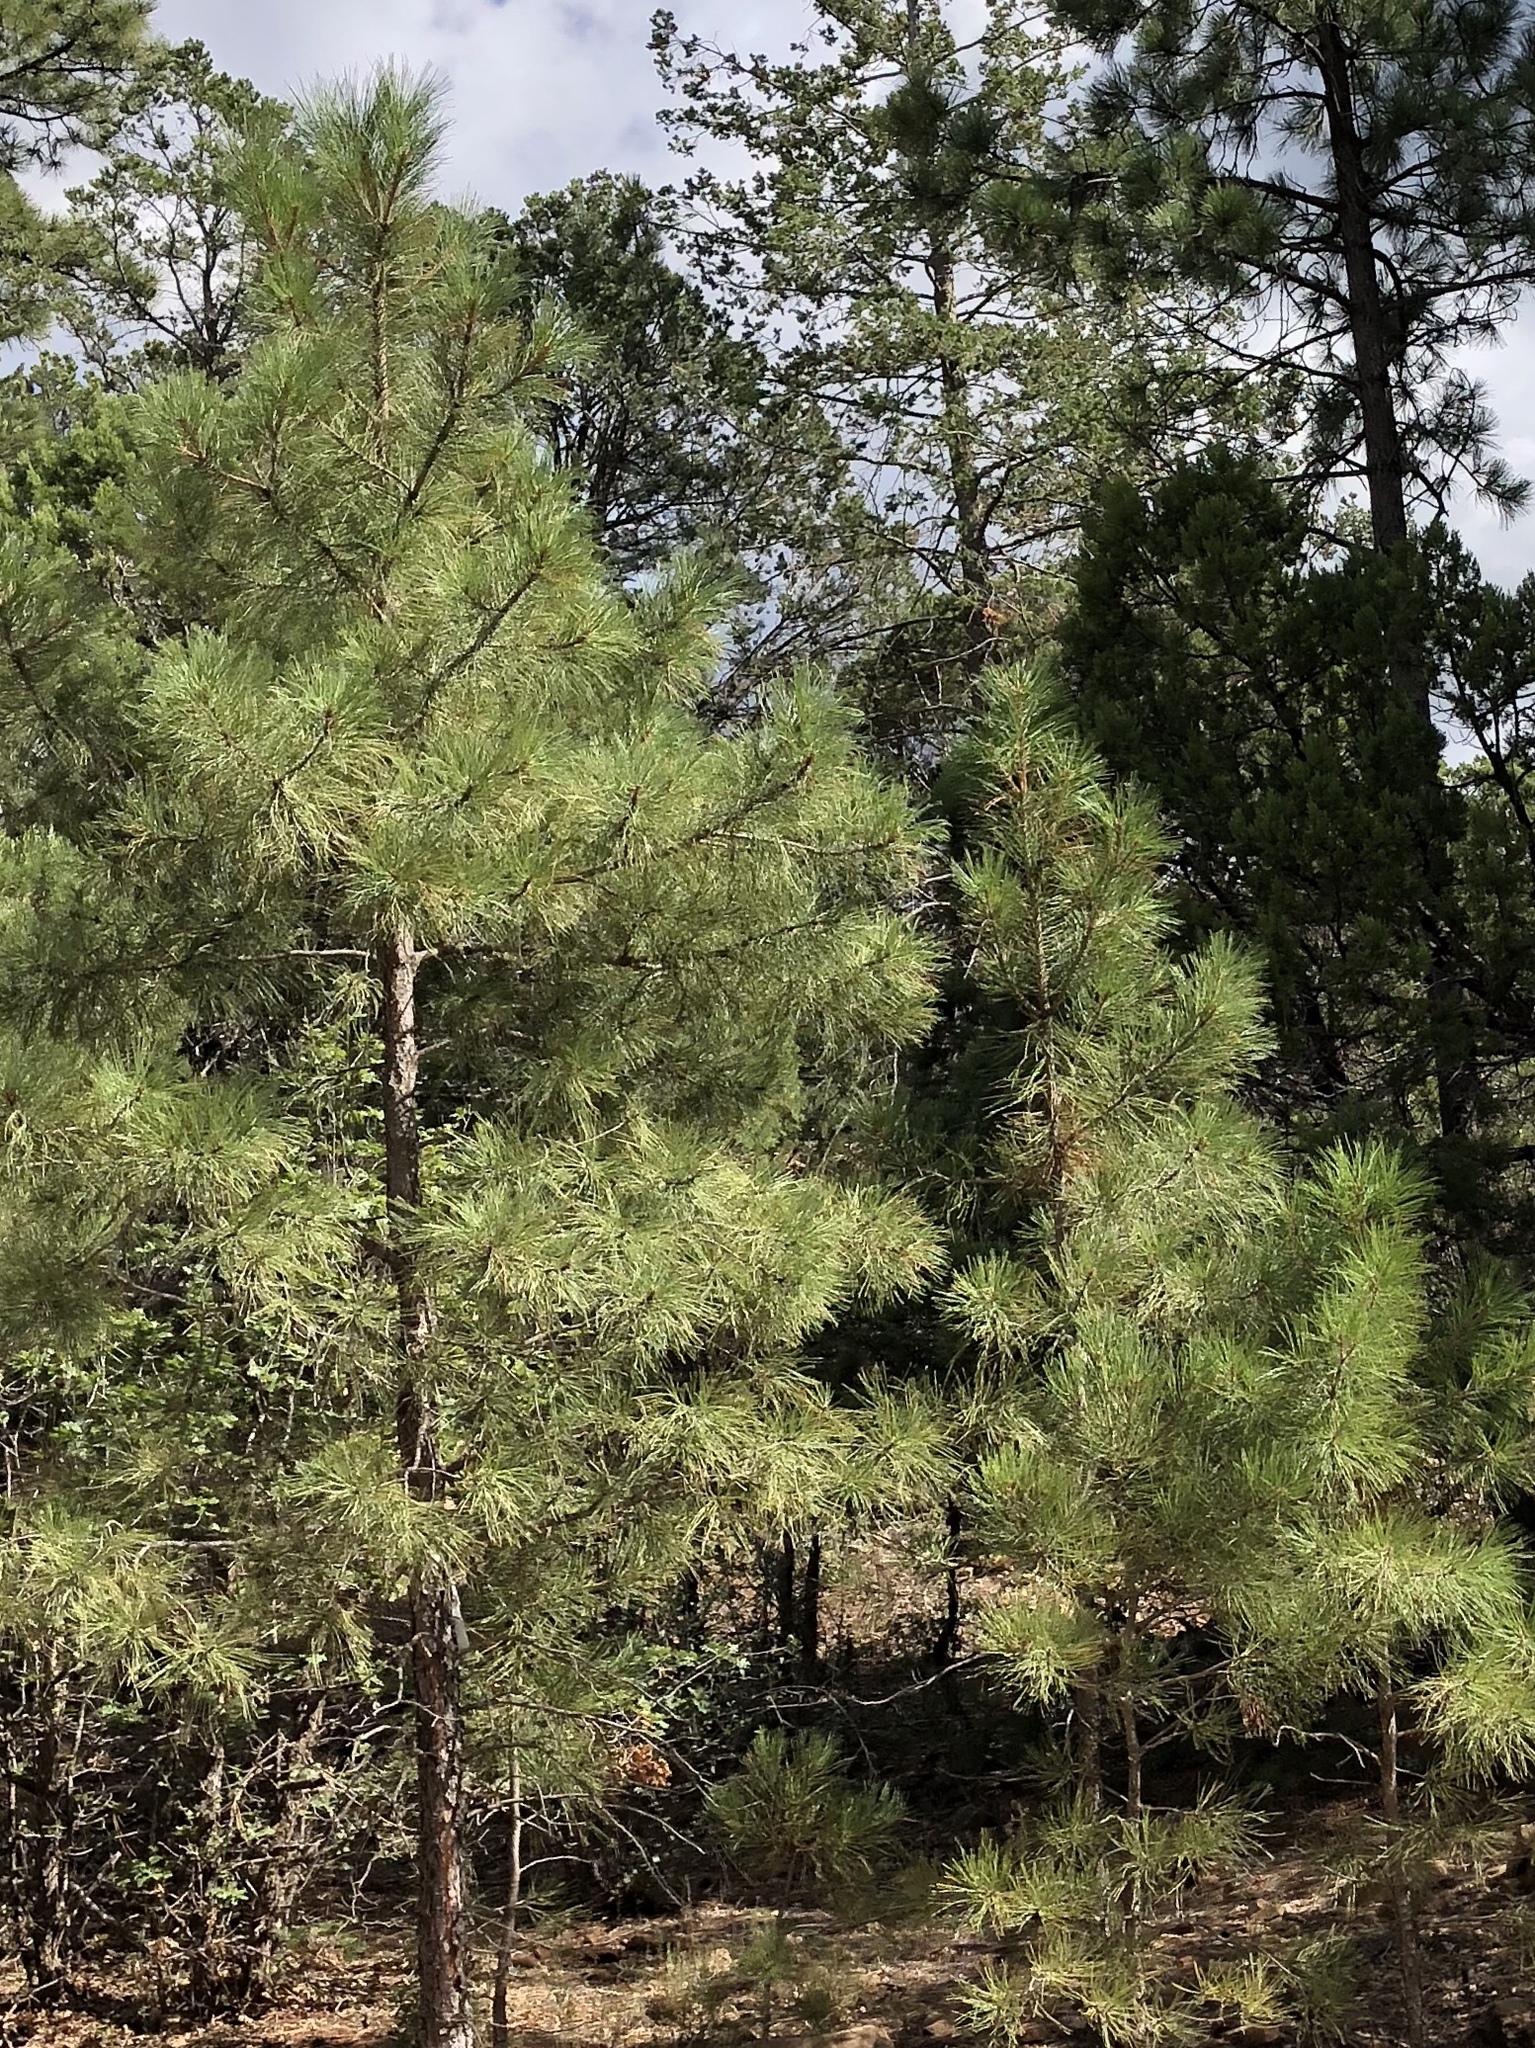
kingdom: Plantae
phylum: Tracheophyta
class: Pinopsida
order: Pinales
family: Pinaceae
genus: Pinus
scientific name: Pinus ponderosa
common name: Western yellow-pine
